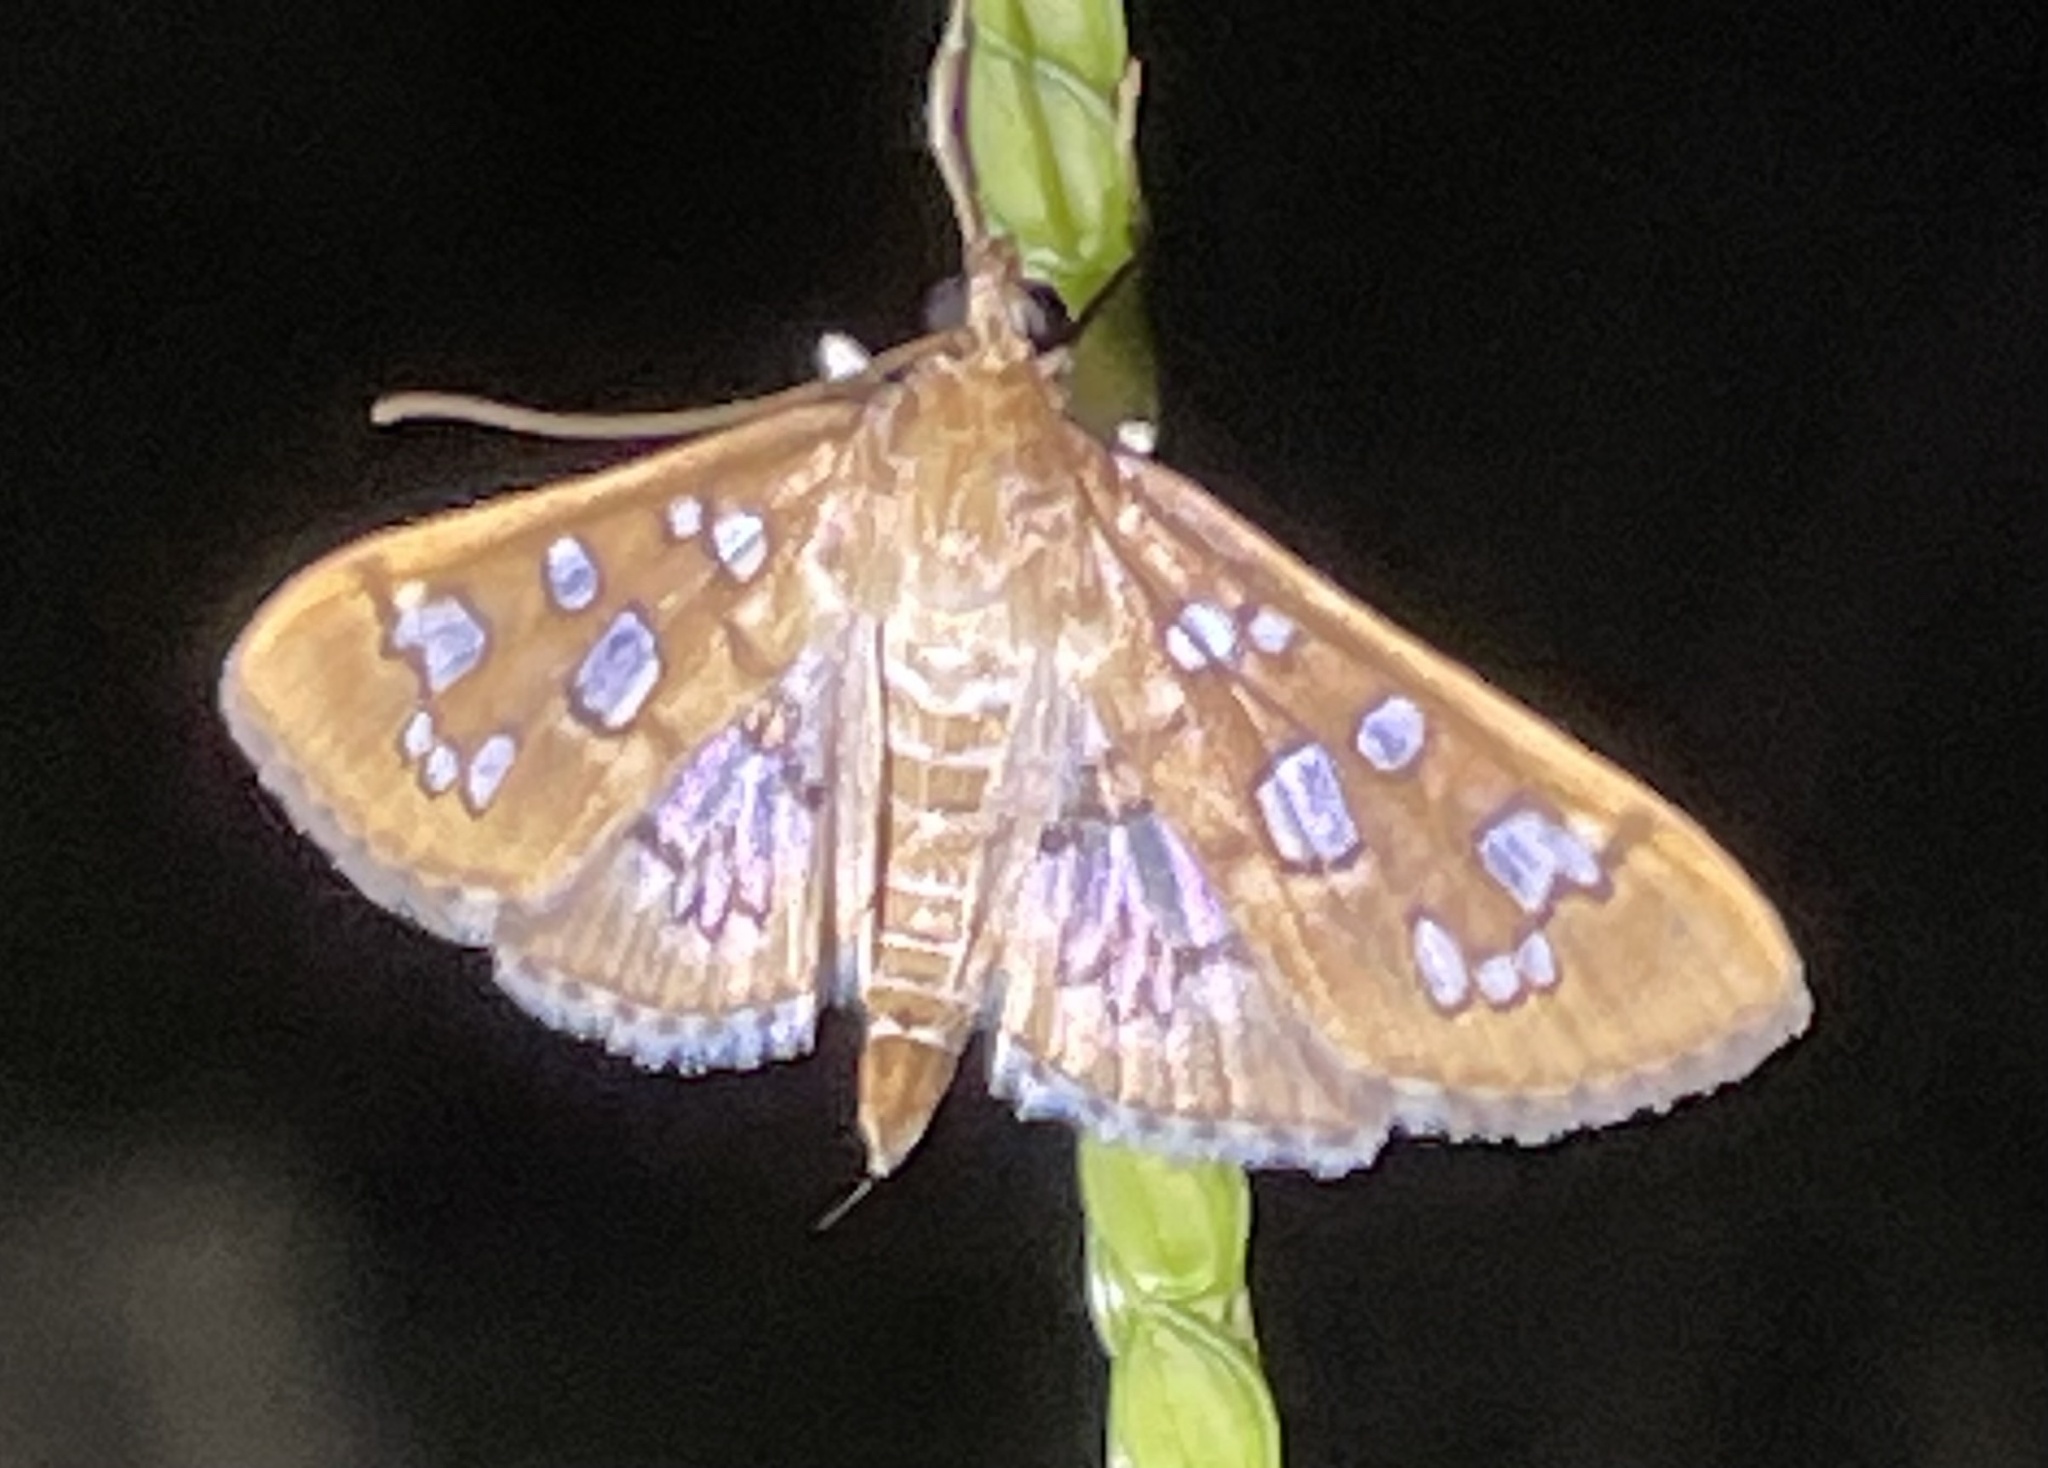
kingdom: Animalia
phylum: Arthropoda
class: Insecta
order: Lepidoptera
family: Crambidae
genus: Samea
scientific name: Samea baccatalis
